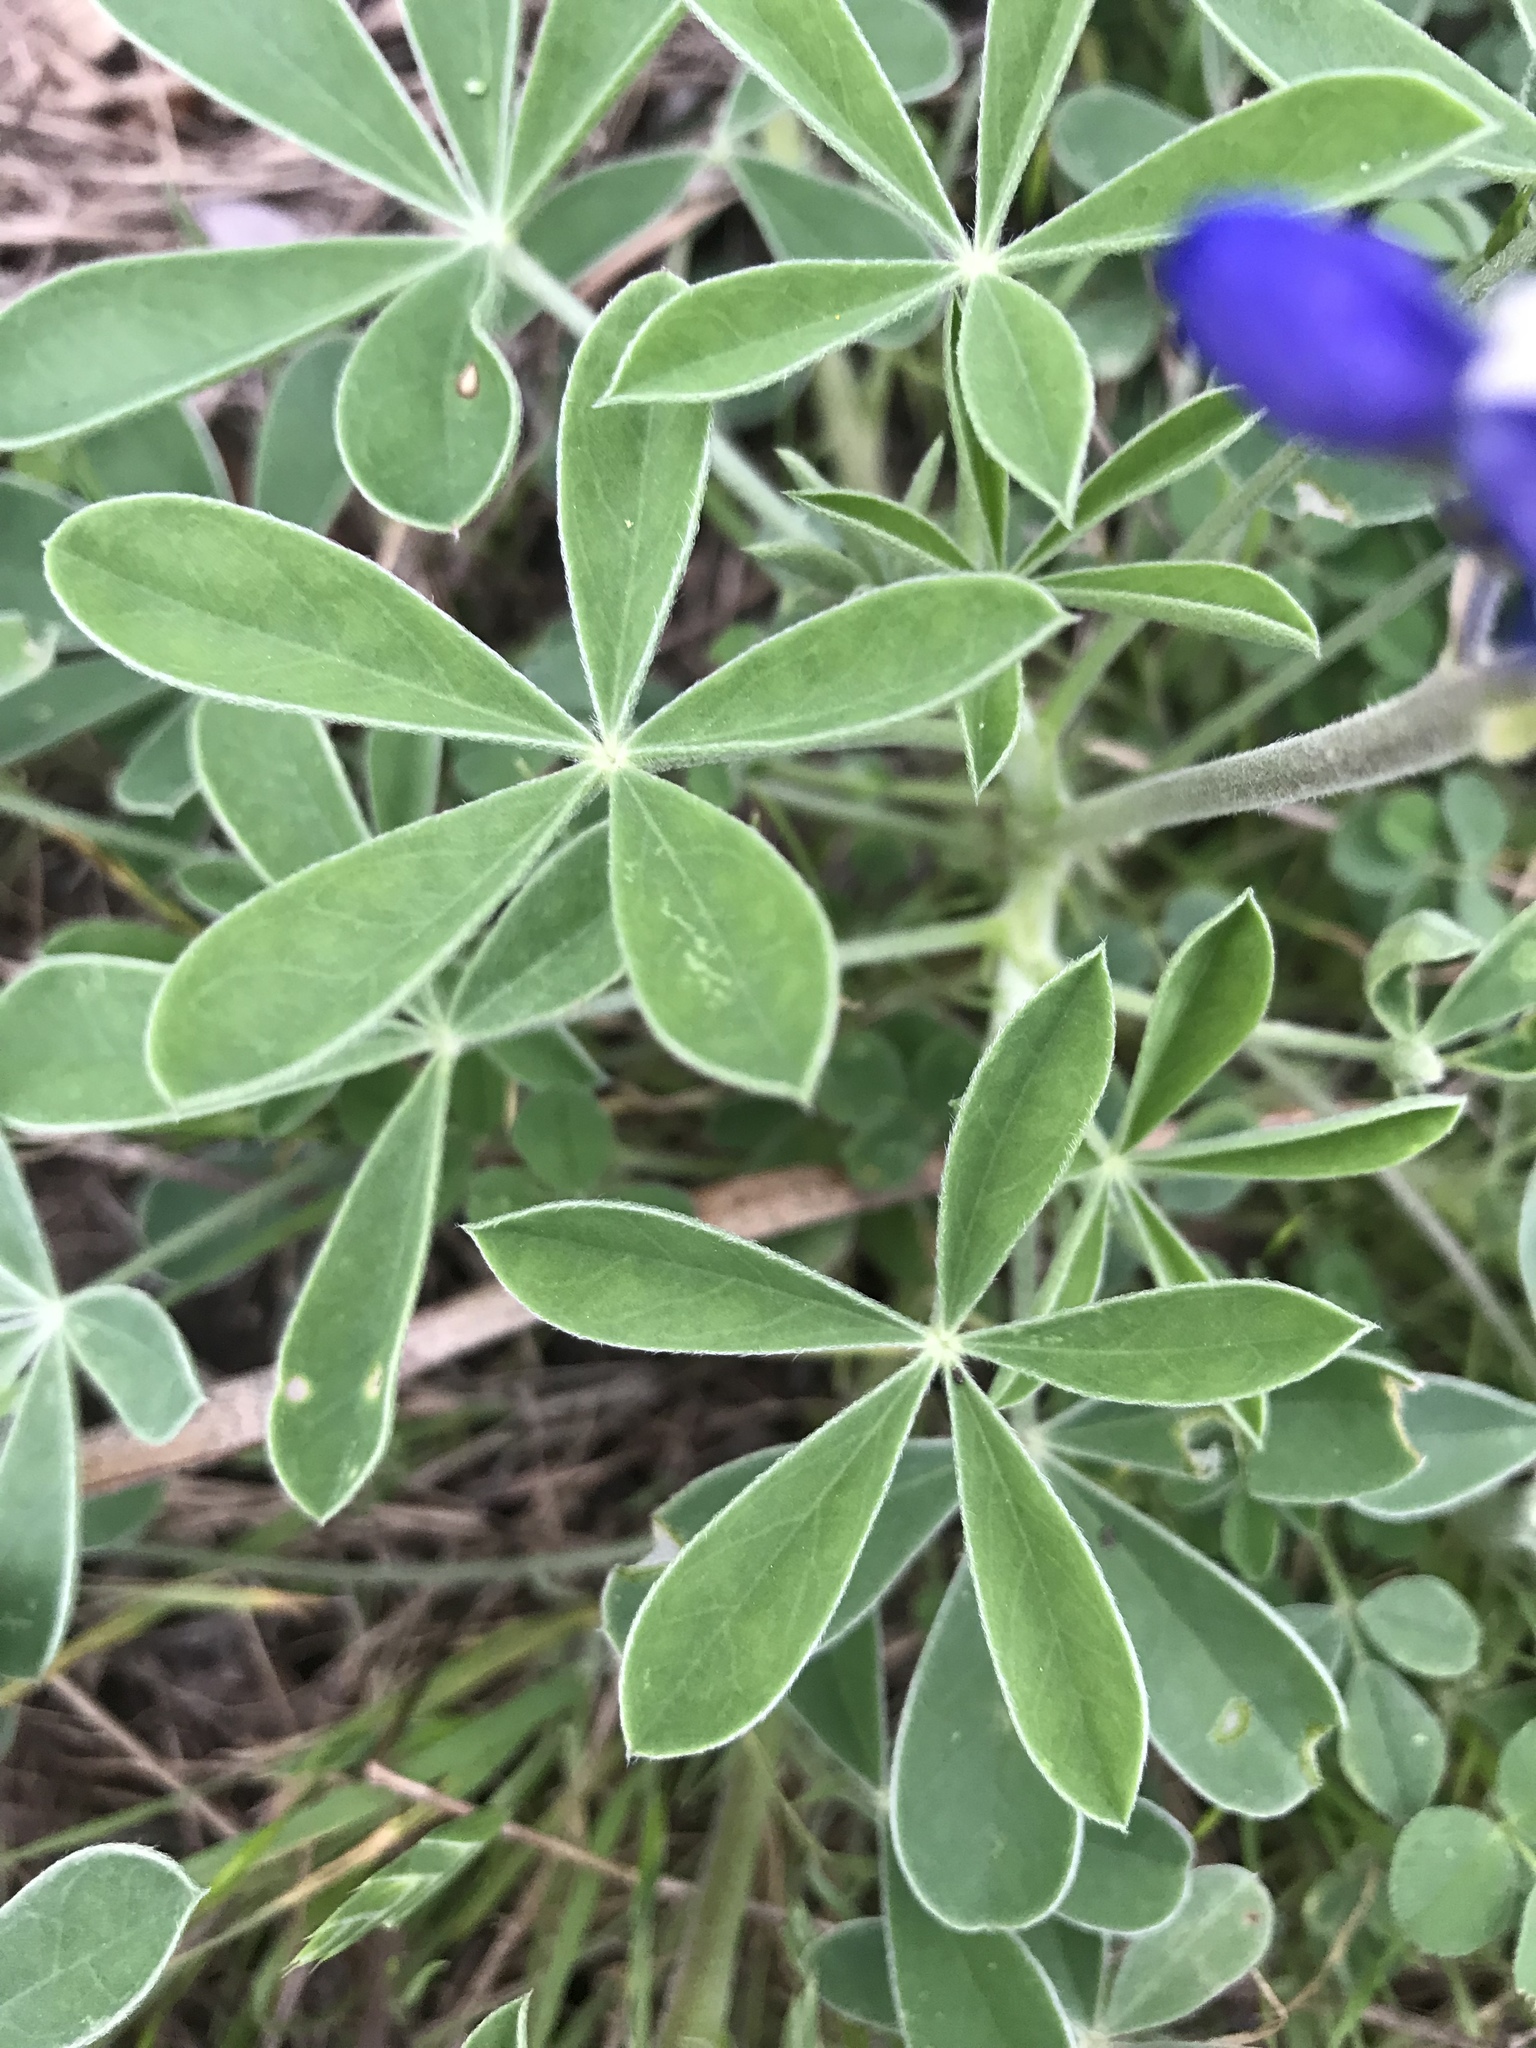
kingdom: Plantae
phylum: Tracheophyta
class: Magnoliopsida
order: Fabales
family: Fabaceae
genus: Lupinus
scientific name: Lupinus texensis
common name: Texas bluebonnet
